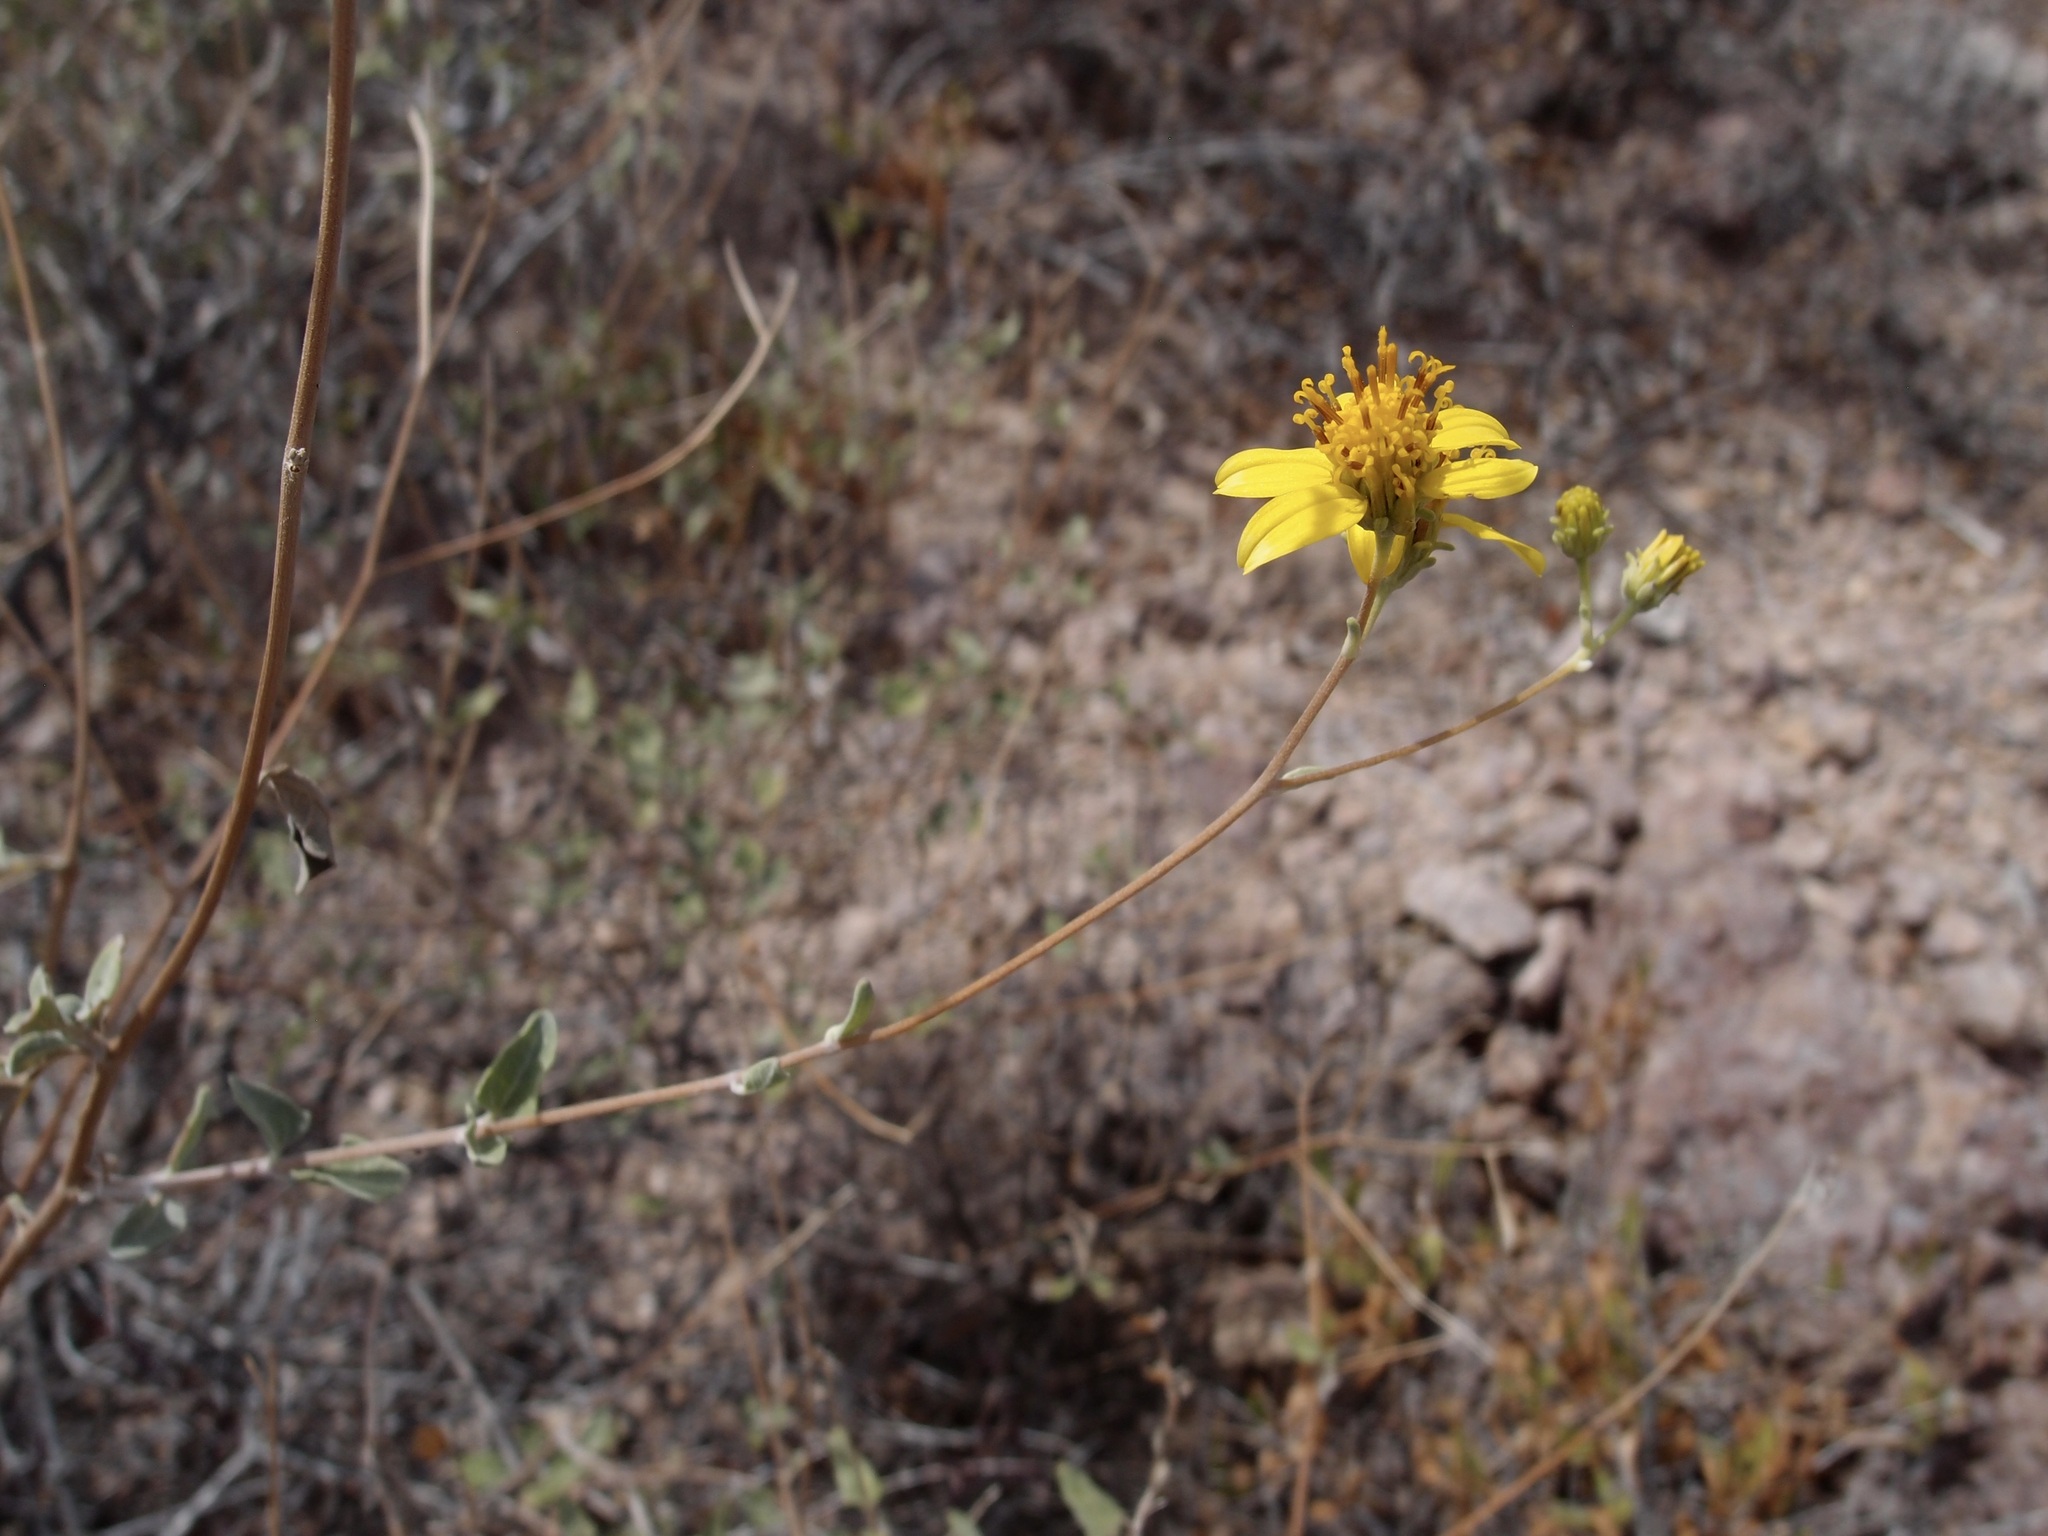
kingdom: Plantae
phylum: Tracheophyta
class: Magnoliopsida
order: Asterales
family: Asteraceae
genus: Bahiopsis
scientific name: Bahiopsis chenopodina
